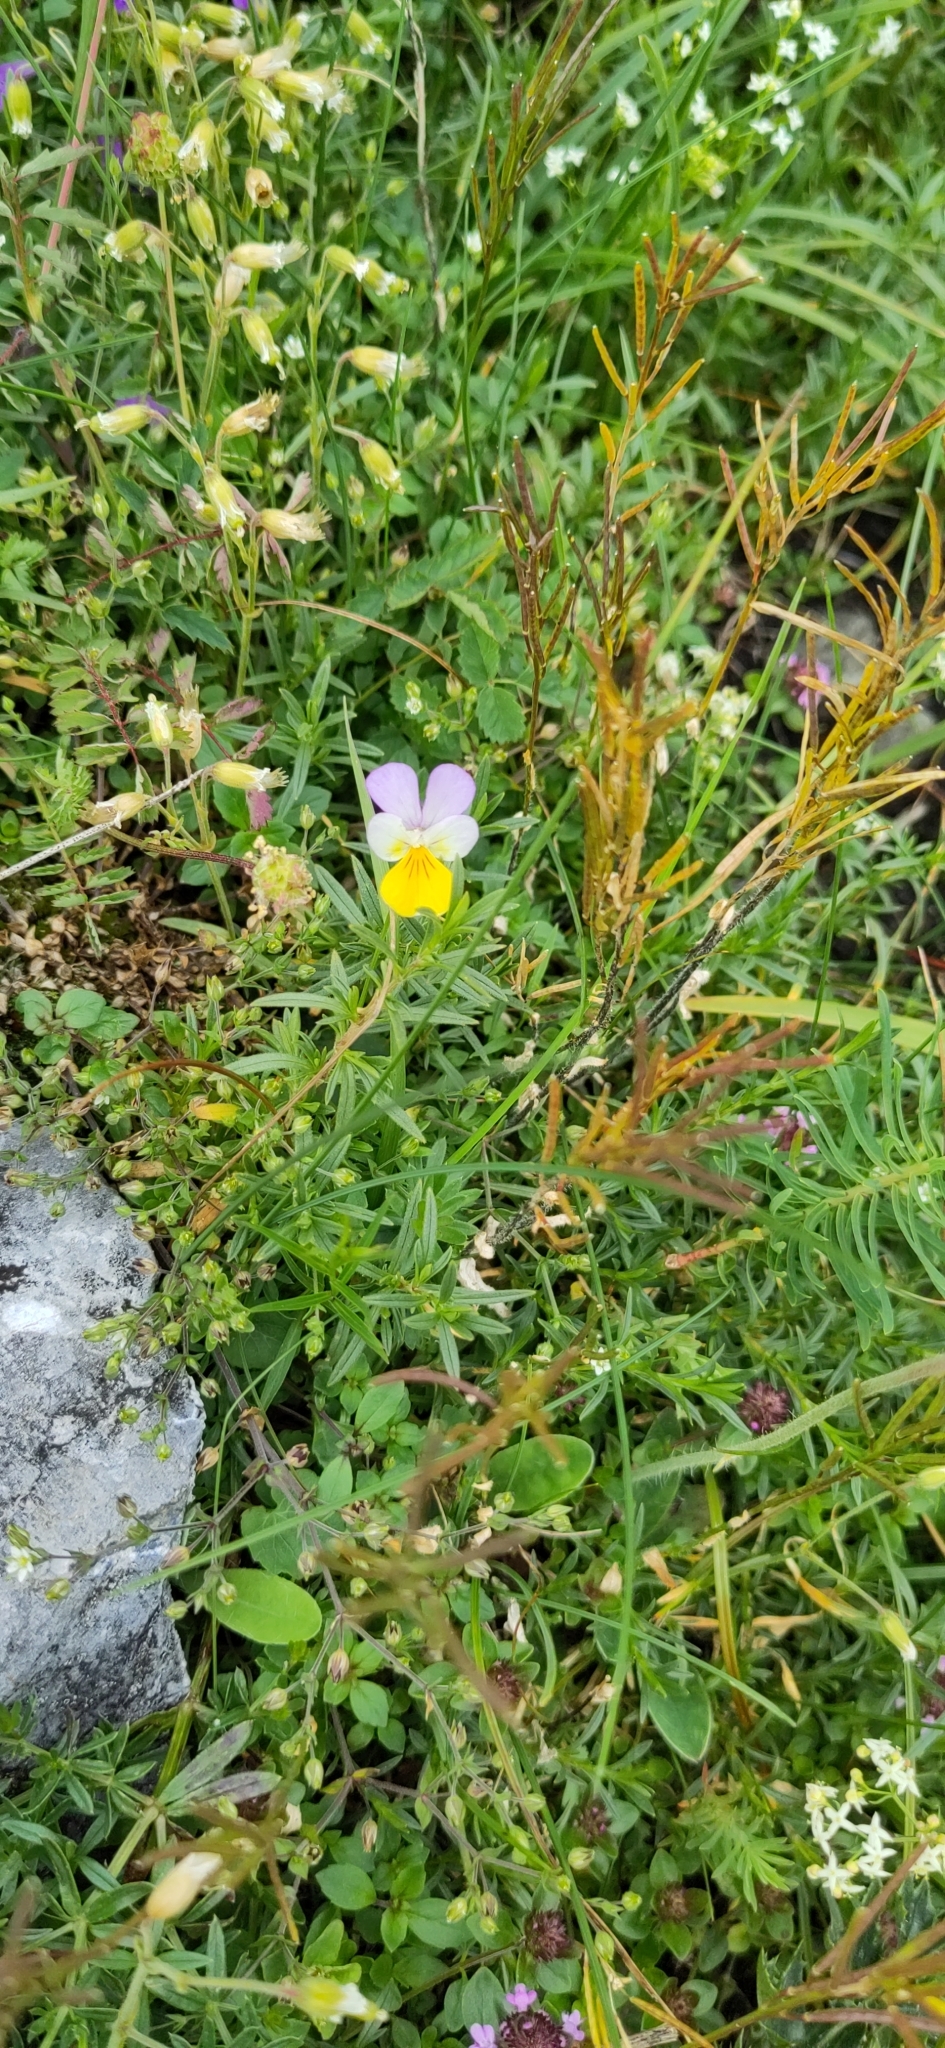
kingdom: Plantae
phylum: Tracheophyta
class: Magnoliopsida
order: Malpighiales
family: Violaceae
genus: Viola
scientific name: Viola tricolor
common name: Pansy
